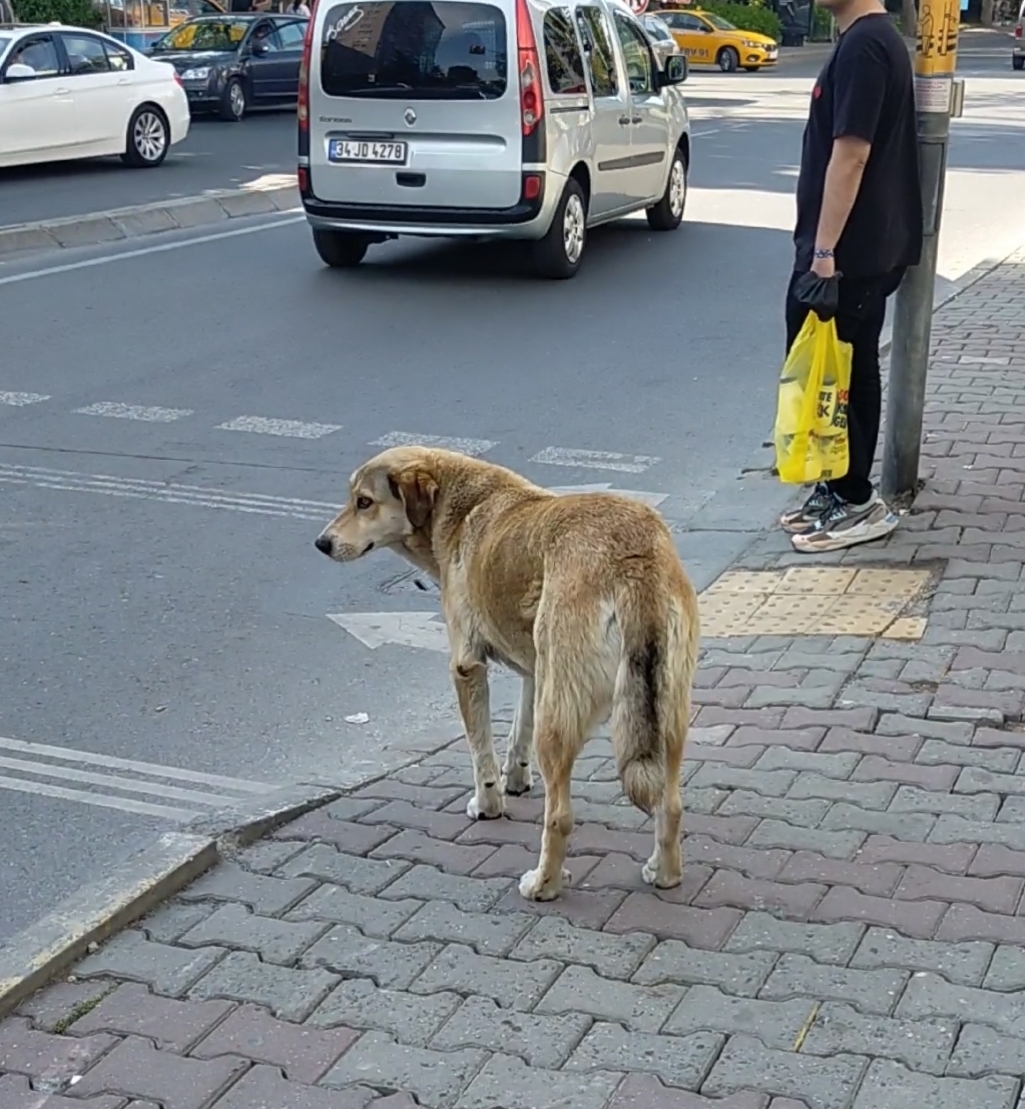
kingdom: Animalia
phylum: Chordata
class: Mammalia
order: Carnivora
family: Canidae
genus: Canis
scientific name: Canis lupus
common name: Gray wolf
